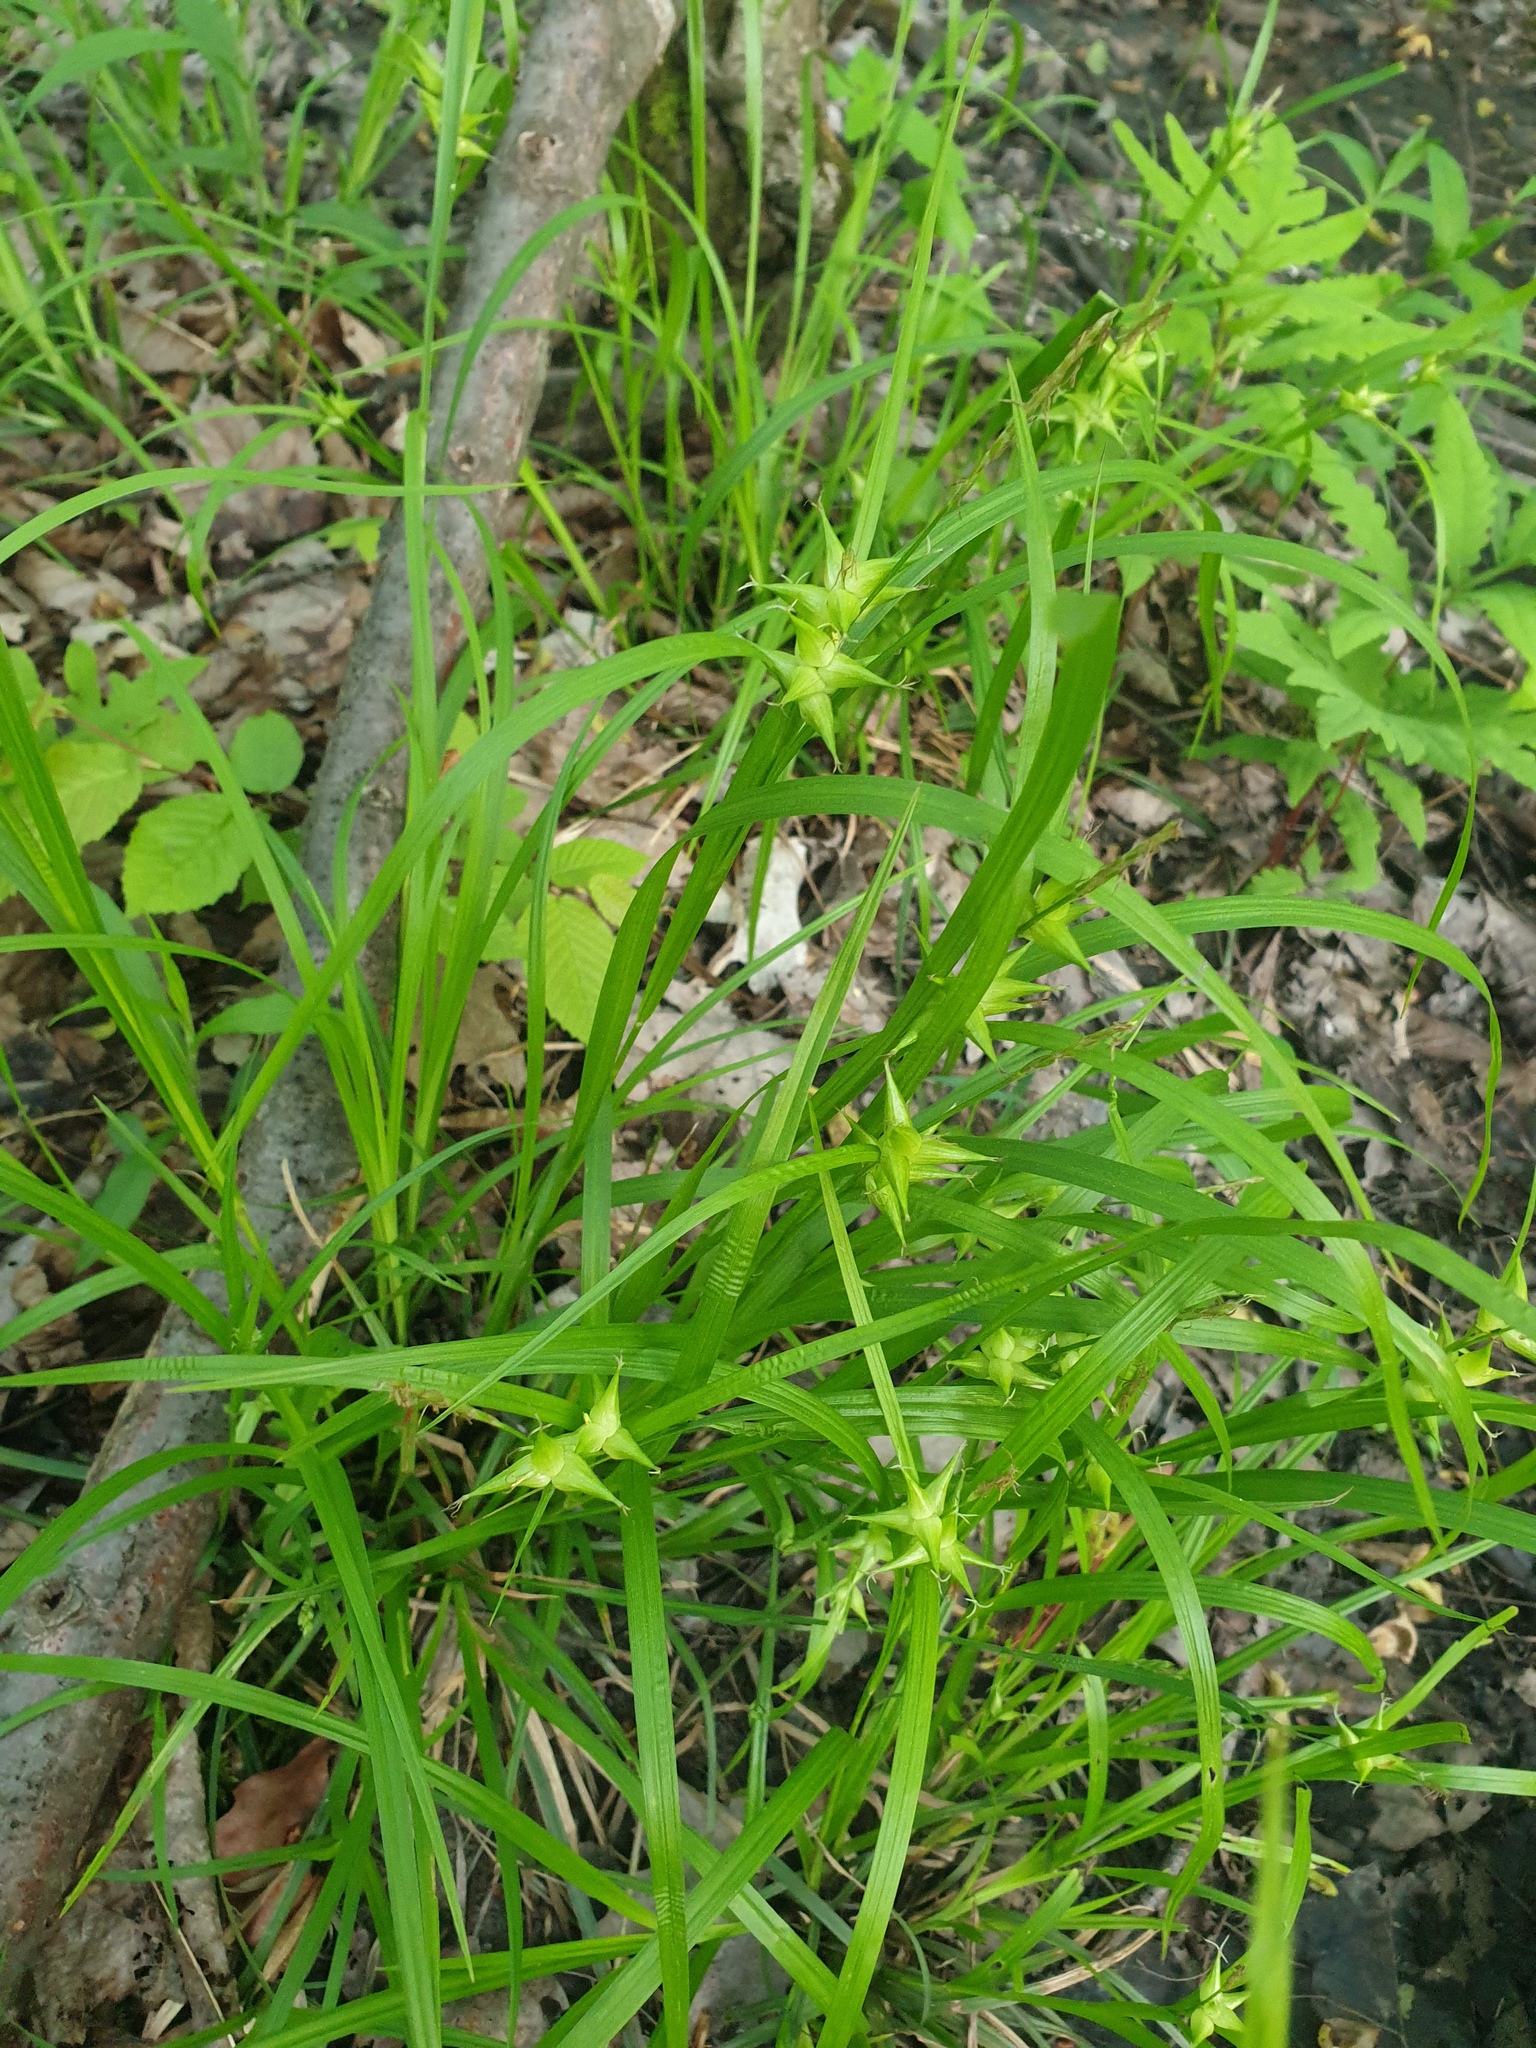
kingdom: Plantae
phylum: Tracheophyta
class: Liliopsida
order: Poales
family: Cyperaceae
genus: Carex
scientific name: Carex intumescens
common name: Greater bladder sedge
